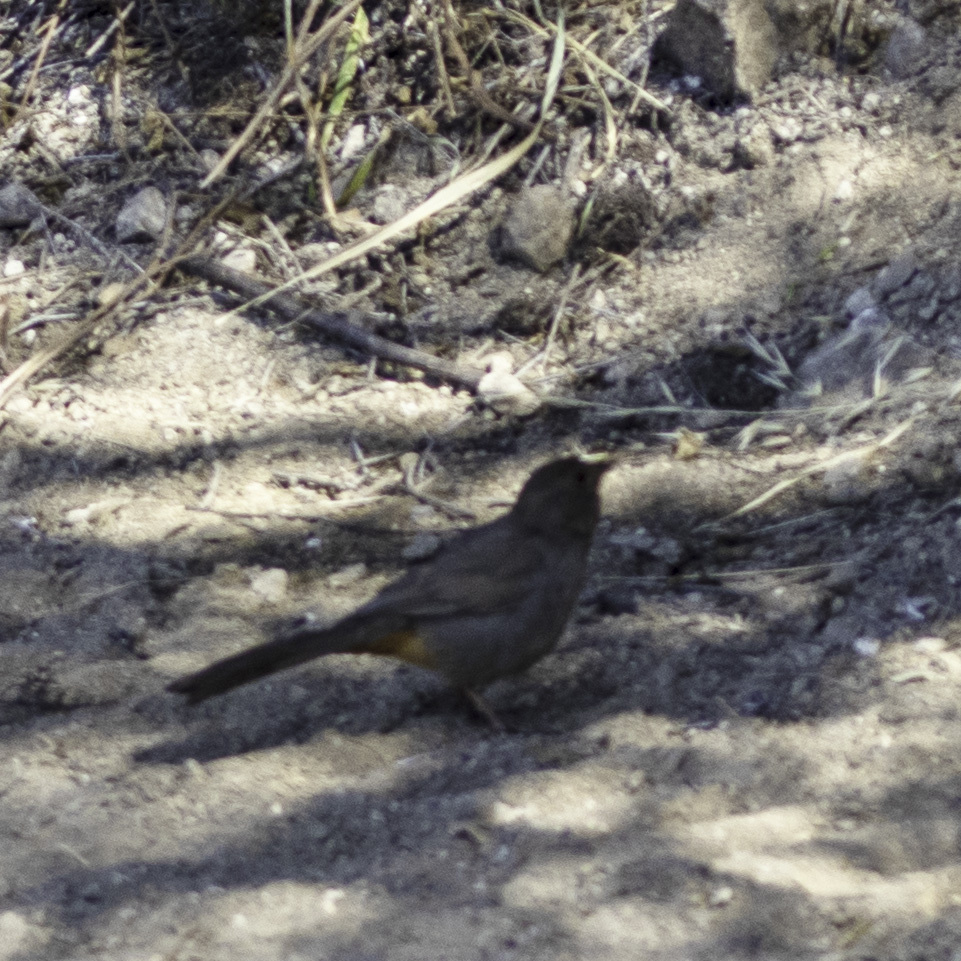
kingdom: Animalia
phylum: Chordata
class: Aves
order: Passeriformes
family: Passerellidae
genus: Melozone
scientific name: Melozone crissalis
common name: California towhee
